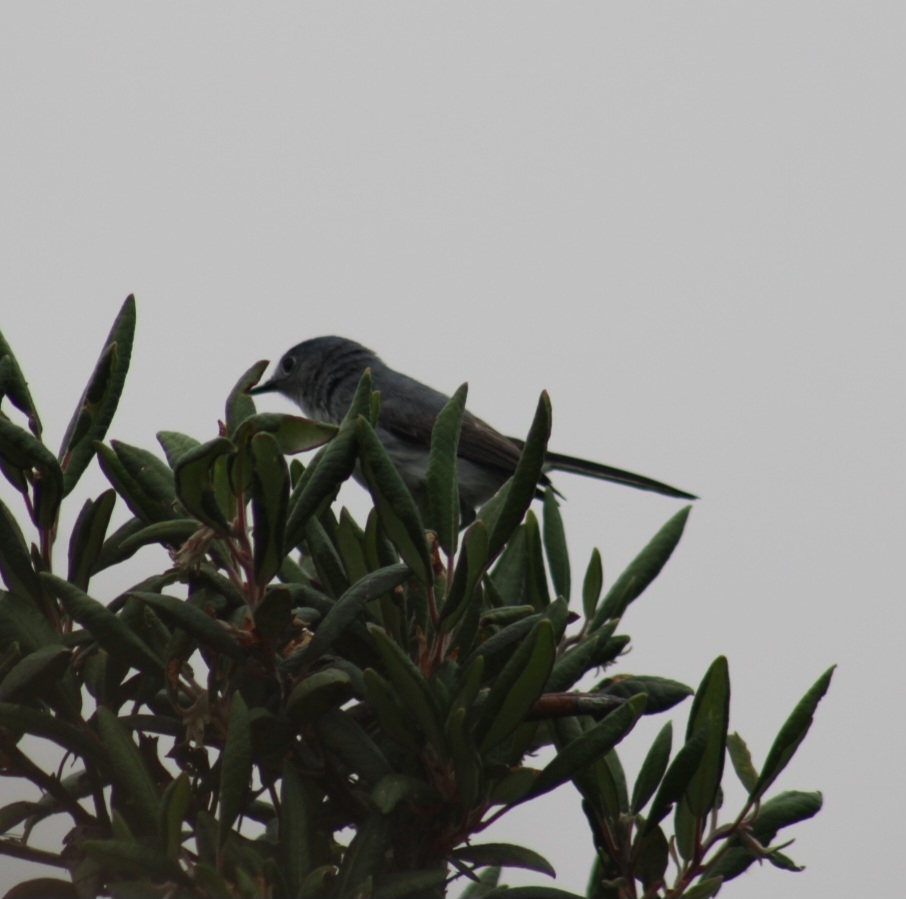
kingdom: Animalia
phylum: Chordata
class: Aves
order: Passeriformes
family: Polioptilidae
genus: Polioptila
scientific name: Polioptila californica
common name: California gnatcatcher
